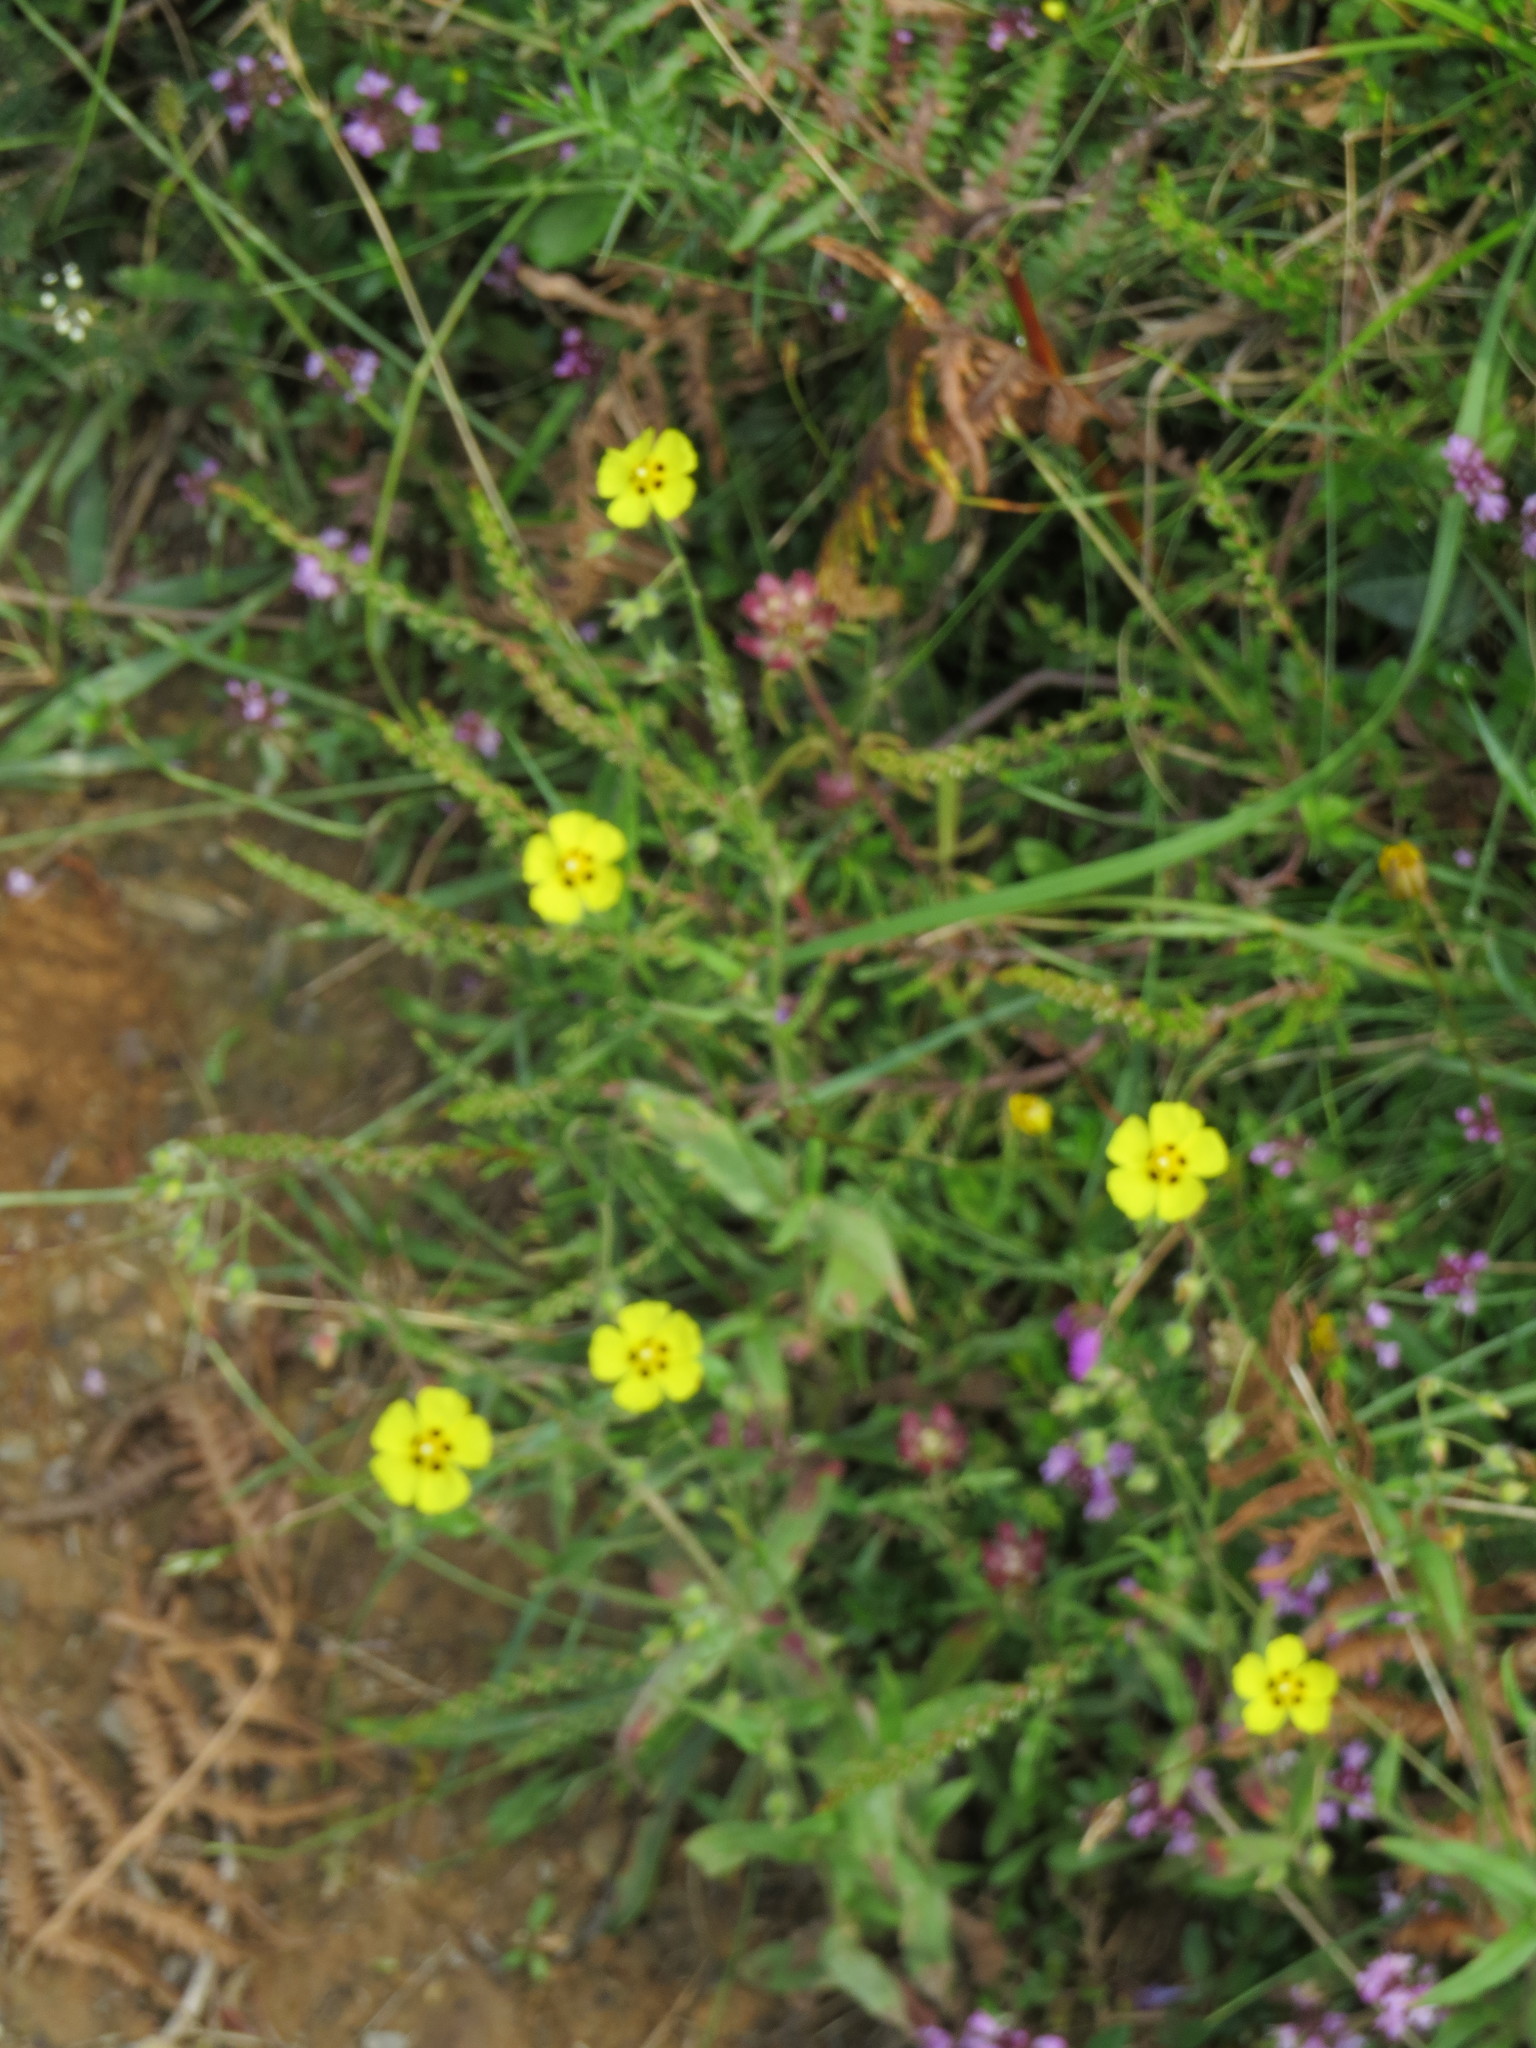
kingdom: Plantae
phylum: Tracheophyta
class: Magnoliopsida
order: Malvales
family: Cistaceae
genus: Tuberaria
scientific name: Tuberaria guttata
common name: Spotted rock-rose
